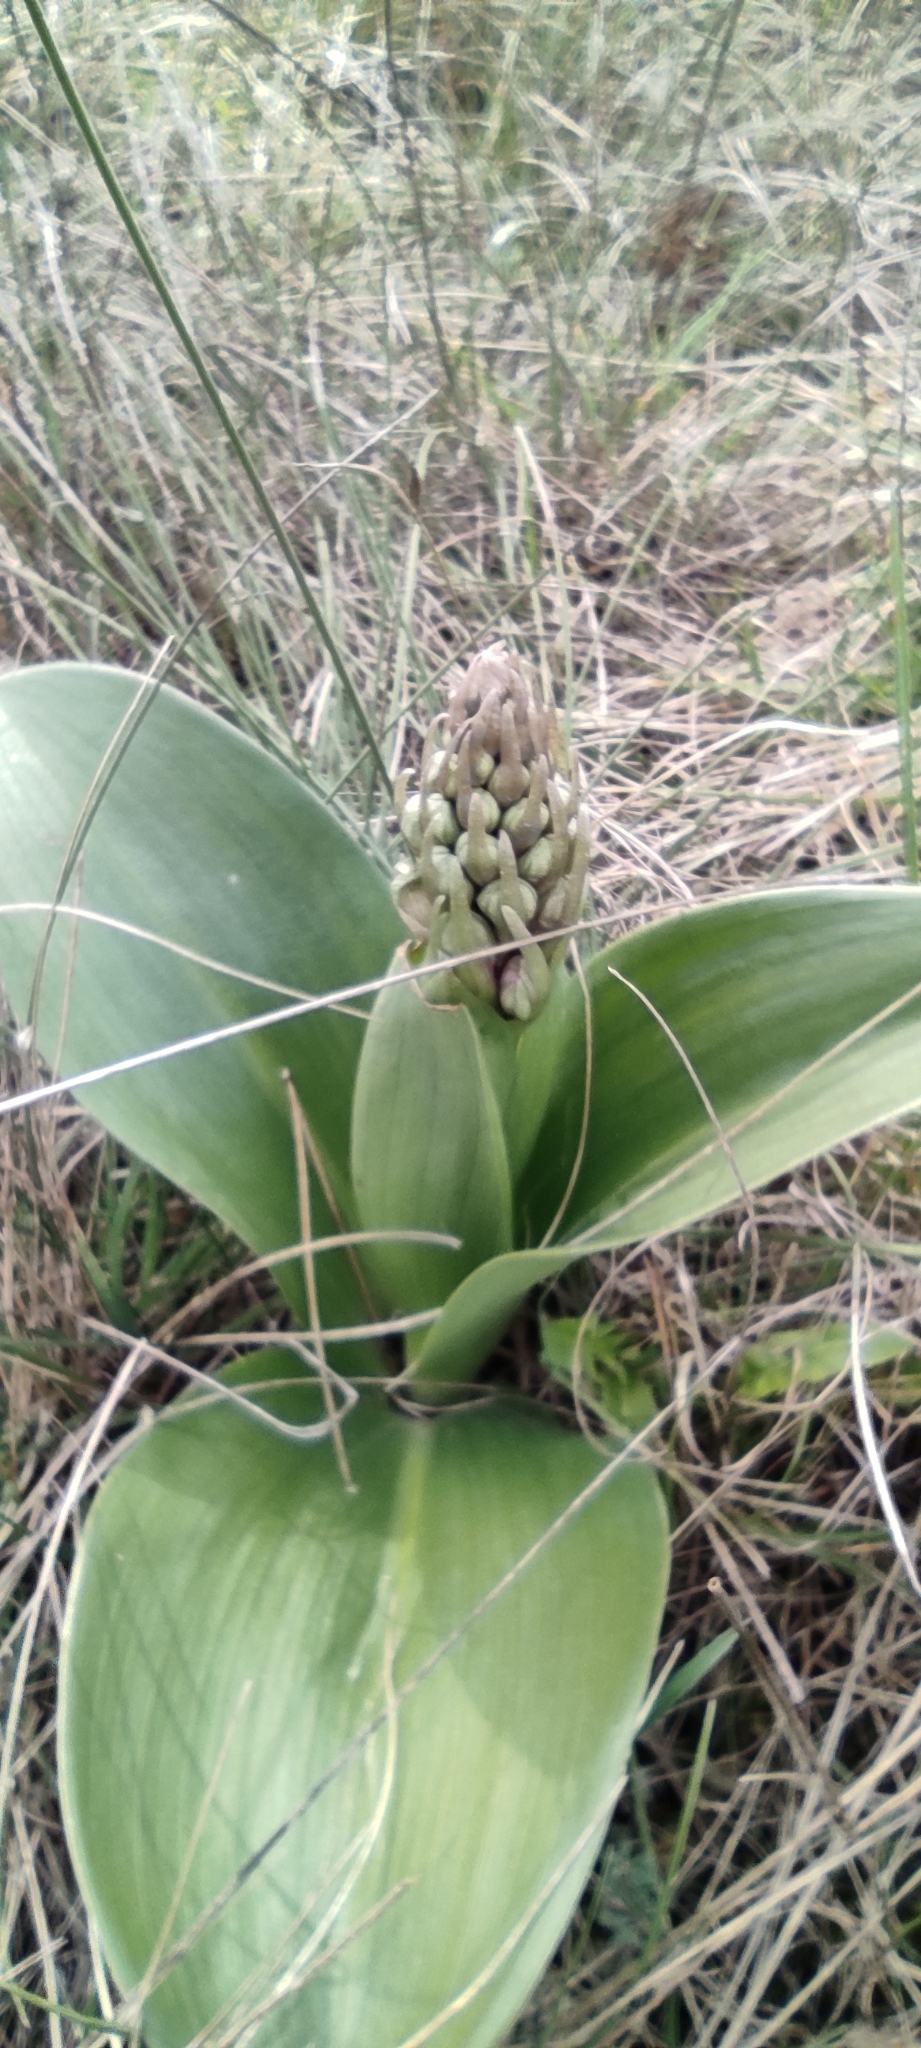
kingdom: Plantae
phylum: Tracheophyta
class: Liliopsida
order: Asparagales
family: Orchidaceae
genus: Himantoglossum
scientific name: Himantoglossum robertianum
